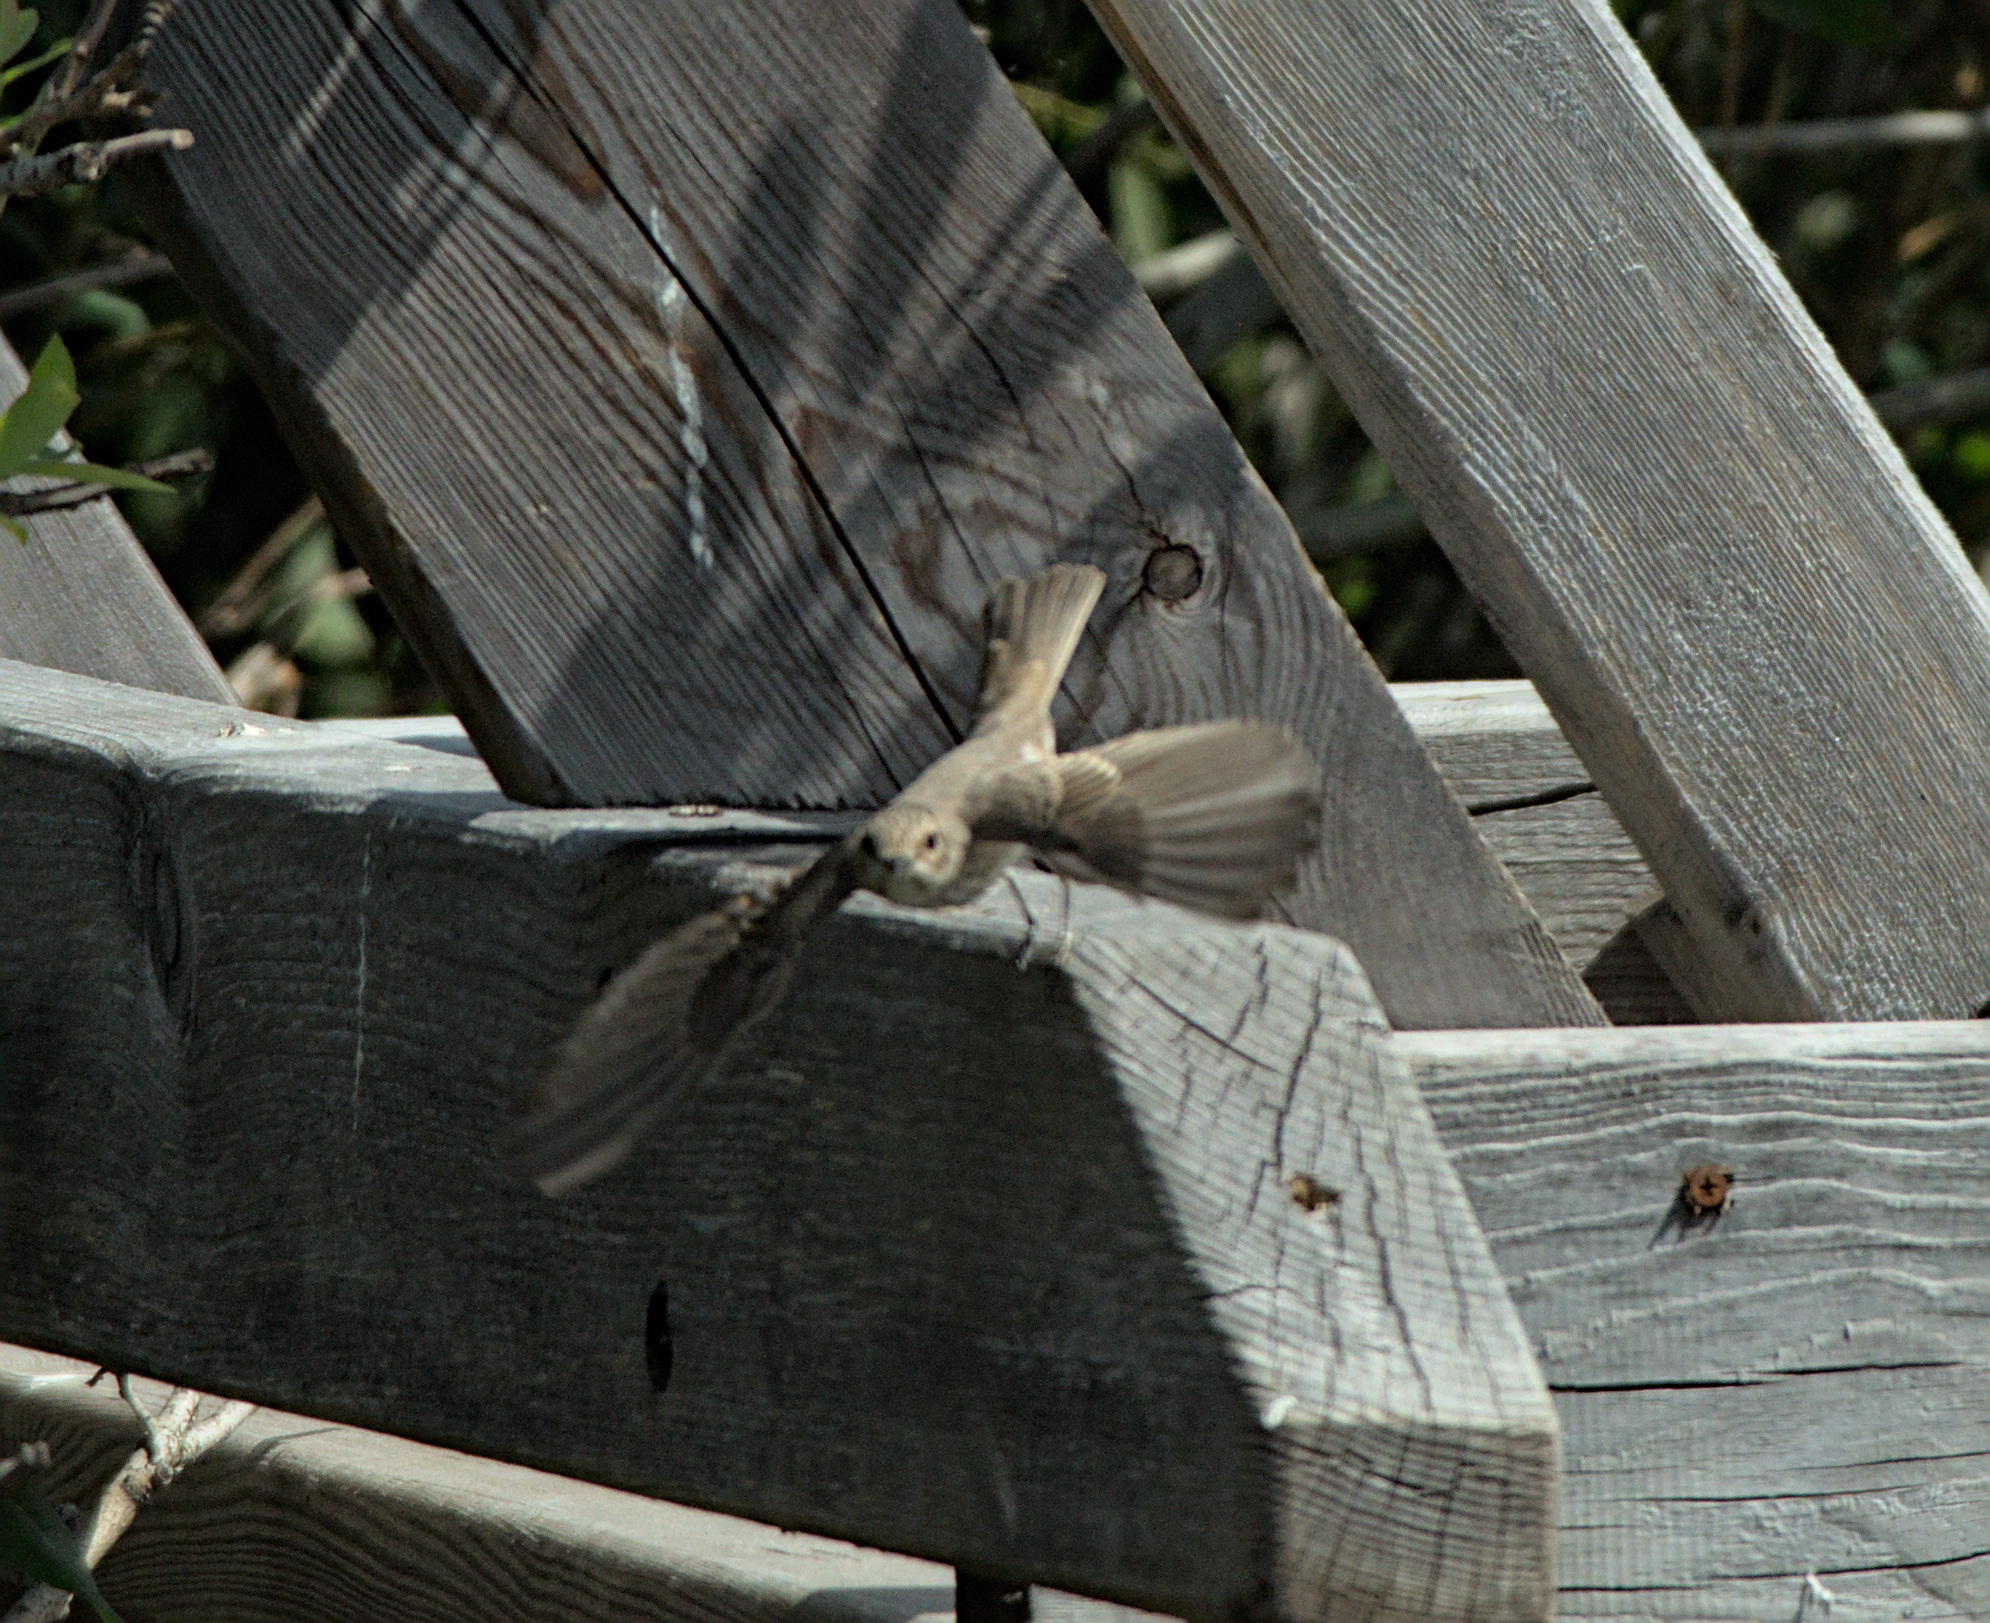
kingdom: Animalia
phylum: Chordata
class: Aves
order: Passeriformes
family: Muscicapidae
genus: Muscicapa
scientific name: Muscicapa striata
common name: Spotted flycatcher
